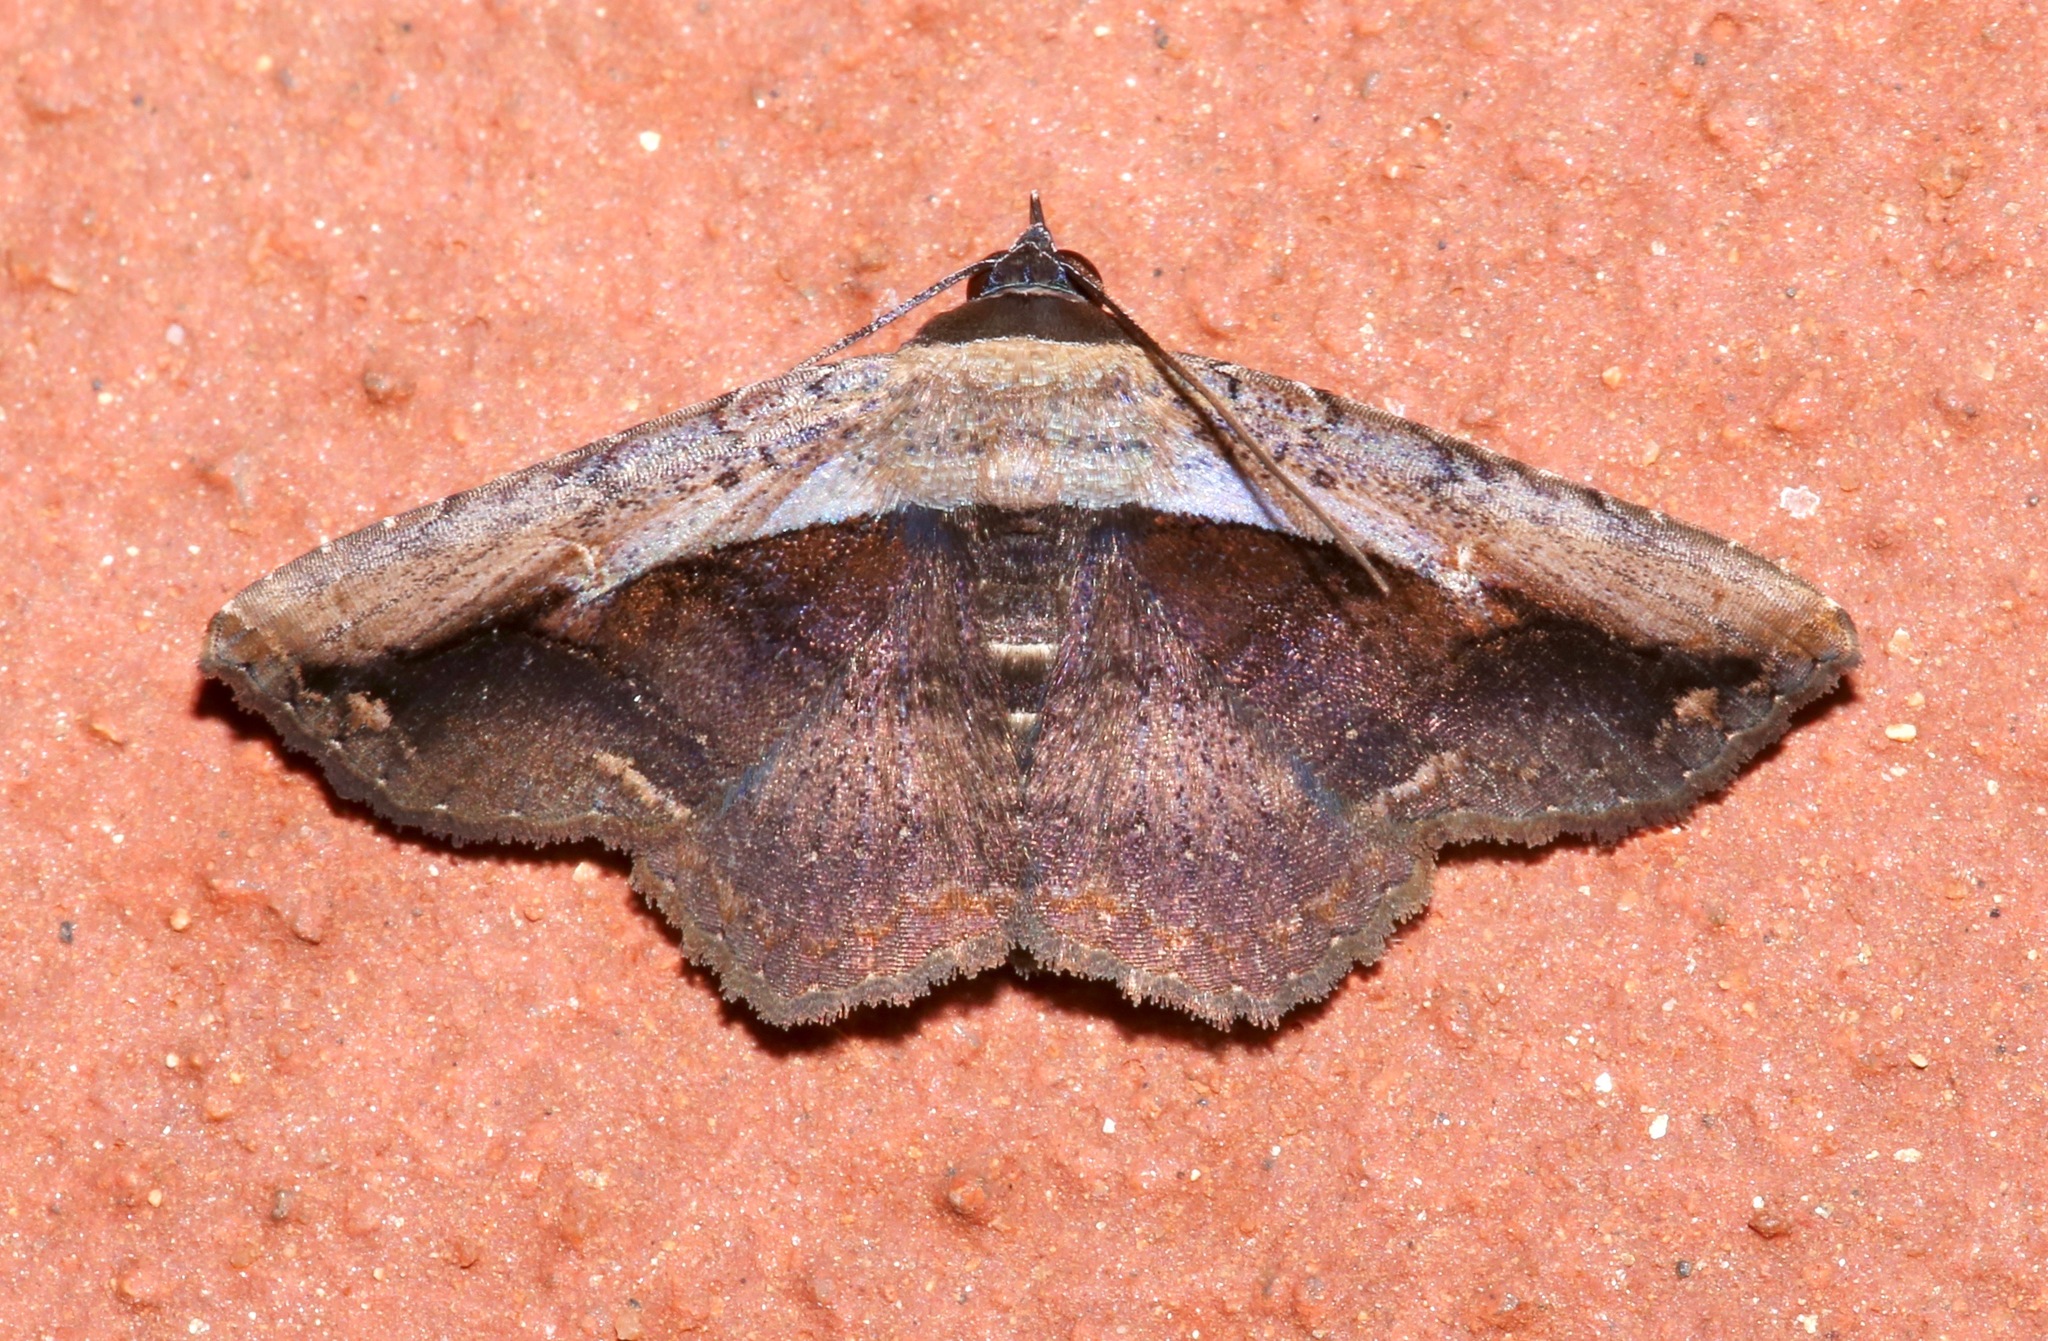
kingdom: Animalia
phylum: Arthropoda
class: Insecta
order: Lepidoptera
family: Erebidae
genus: Selenisa
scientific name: Selenisa sueroides
